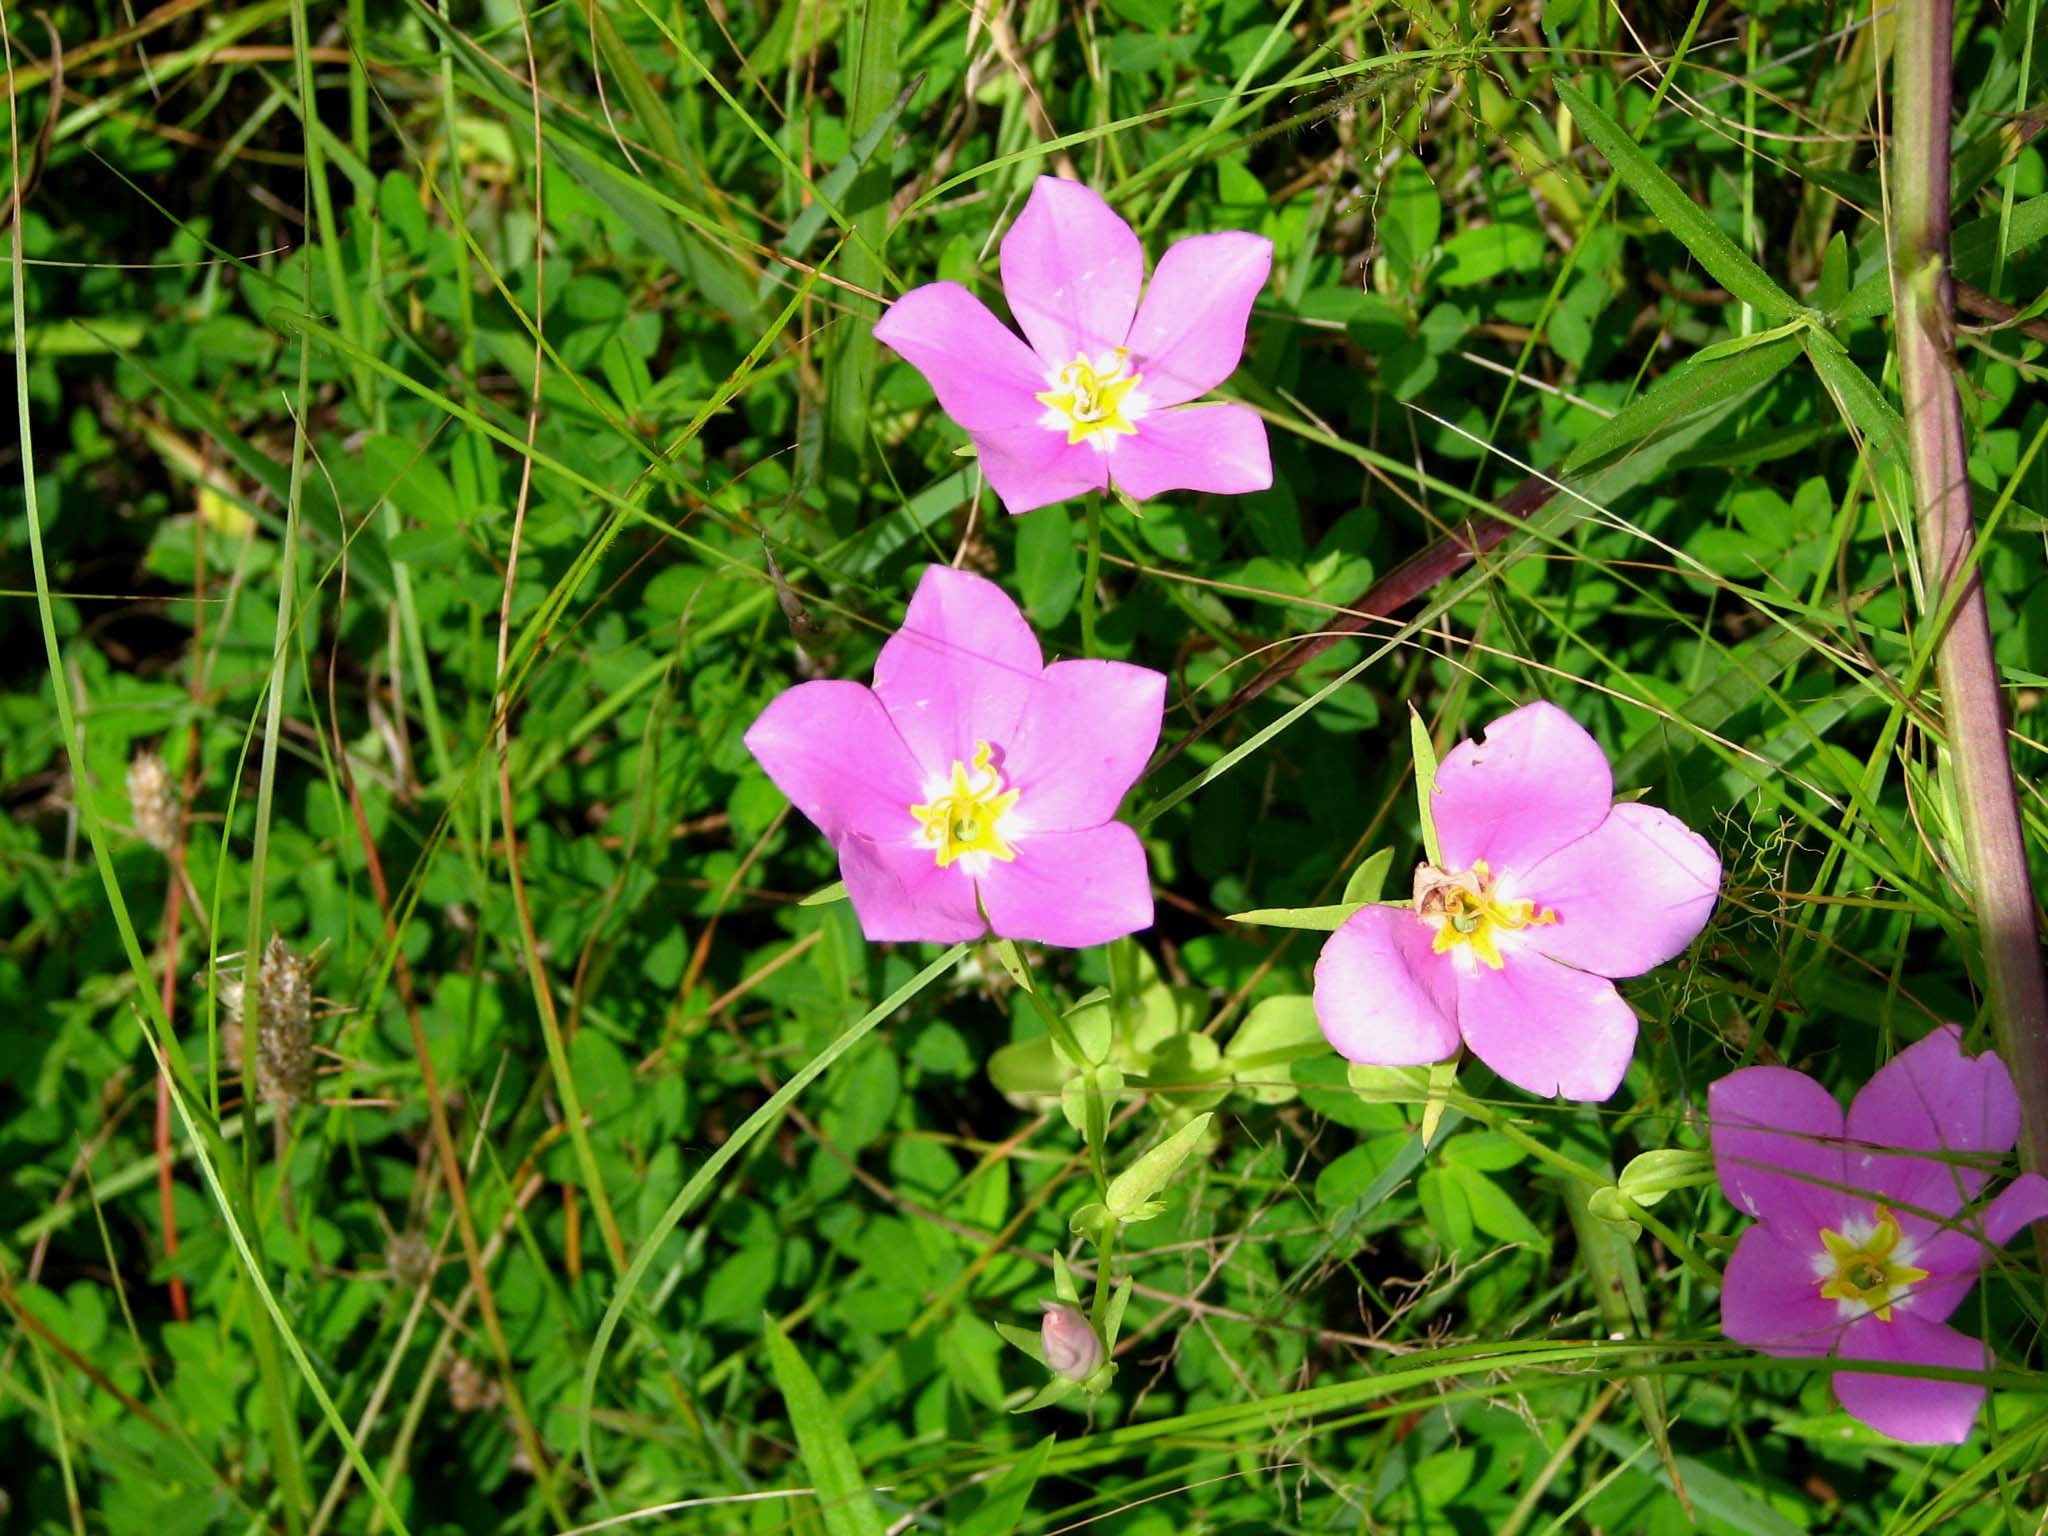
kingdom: Plantae
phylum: Tracheophyta
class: Magnoliopsida
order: Gentianales
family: Gentianaceae
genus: Sabatia
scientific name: Sabatia campestris
